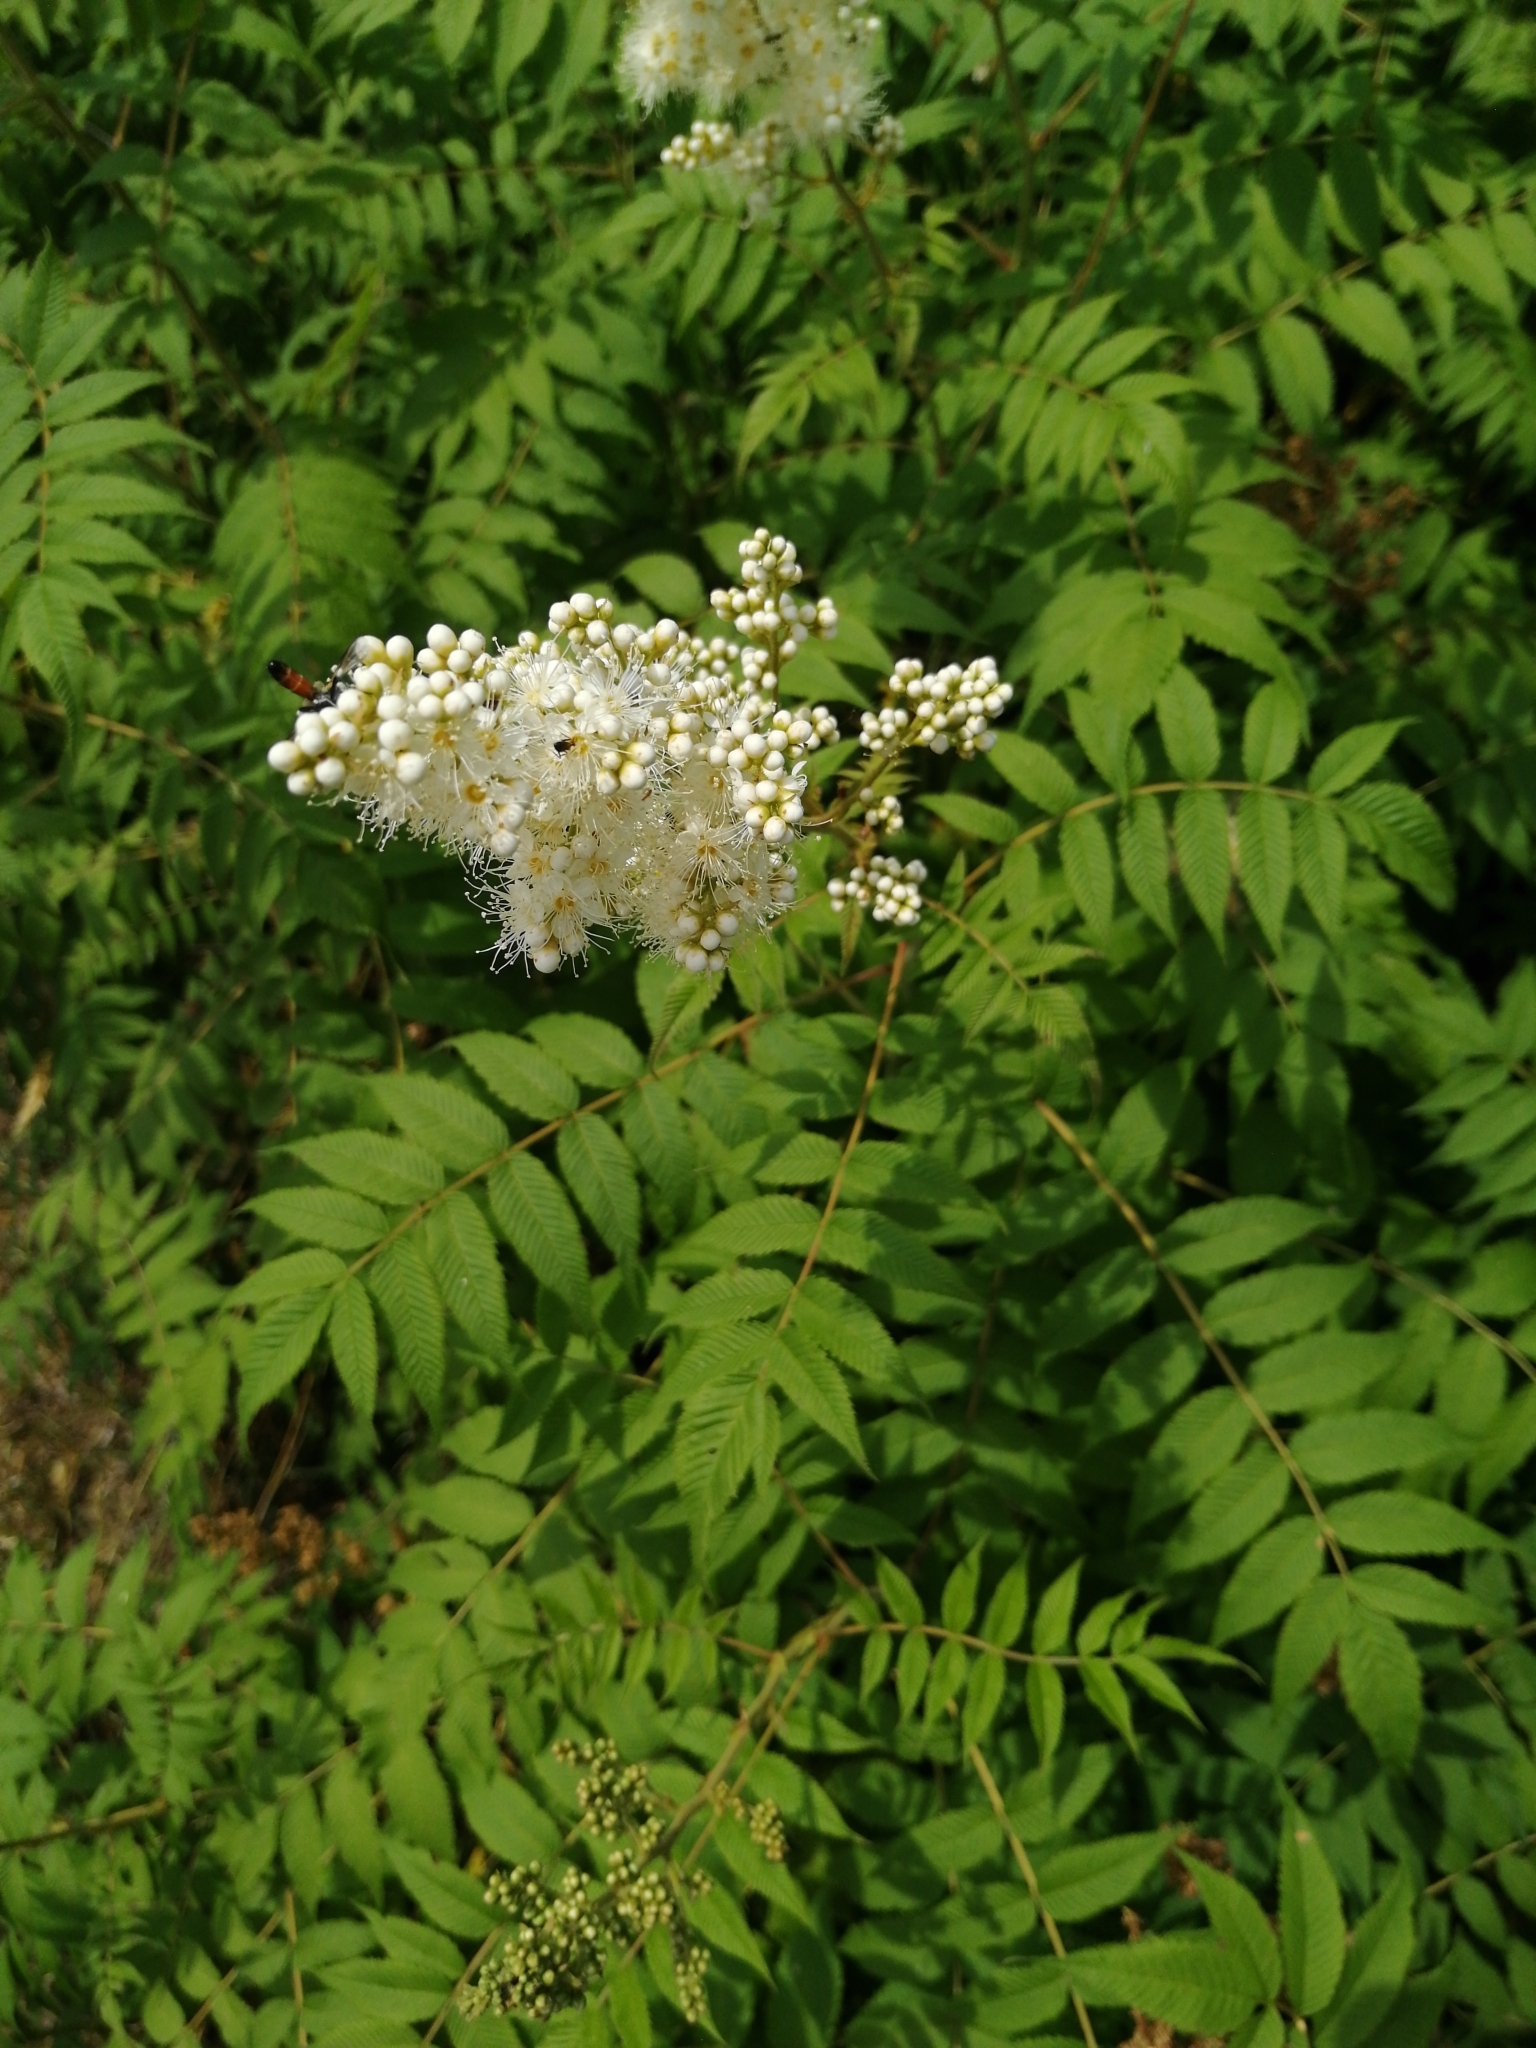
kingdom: Plantae
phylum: Tracheophyta
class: Magnoliopsida
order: Rosales
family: Rosaceae
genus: Sorbaria
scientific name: Sorbaria sorbifolia
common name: False spiraea
